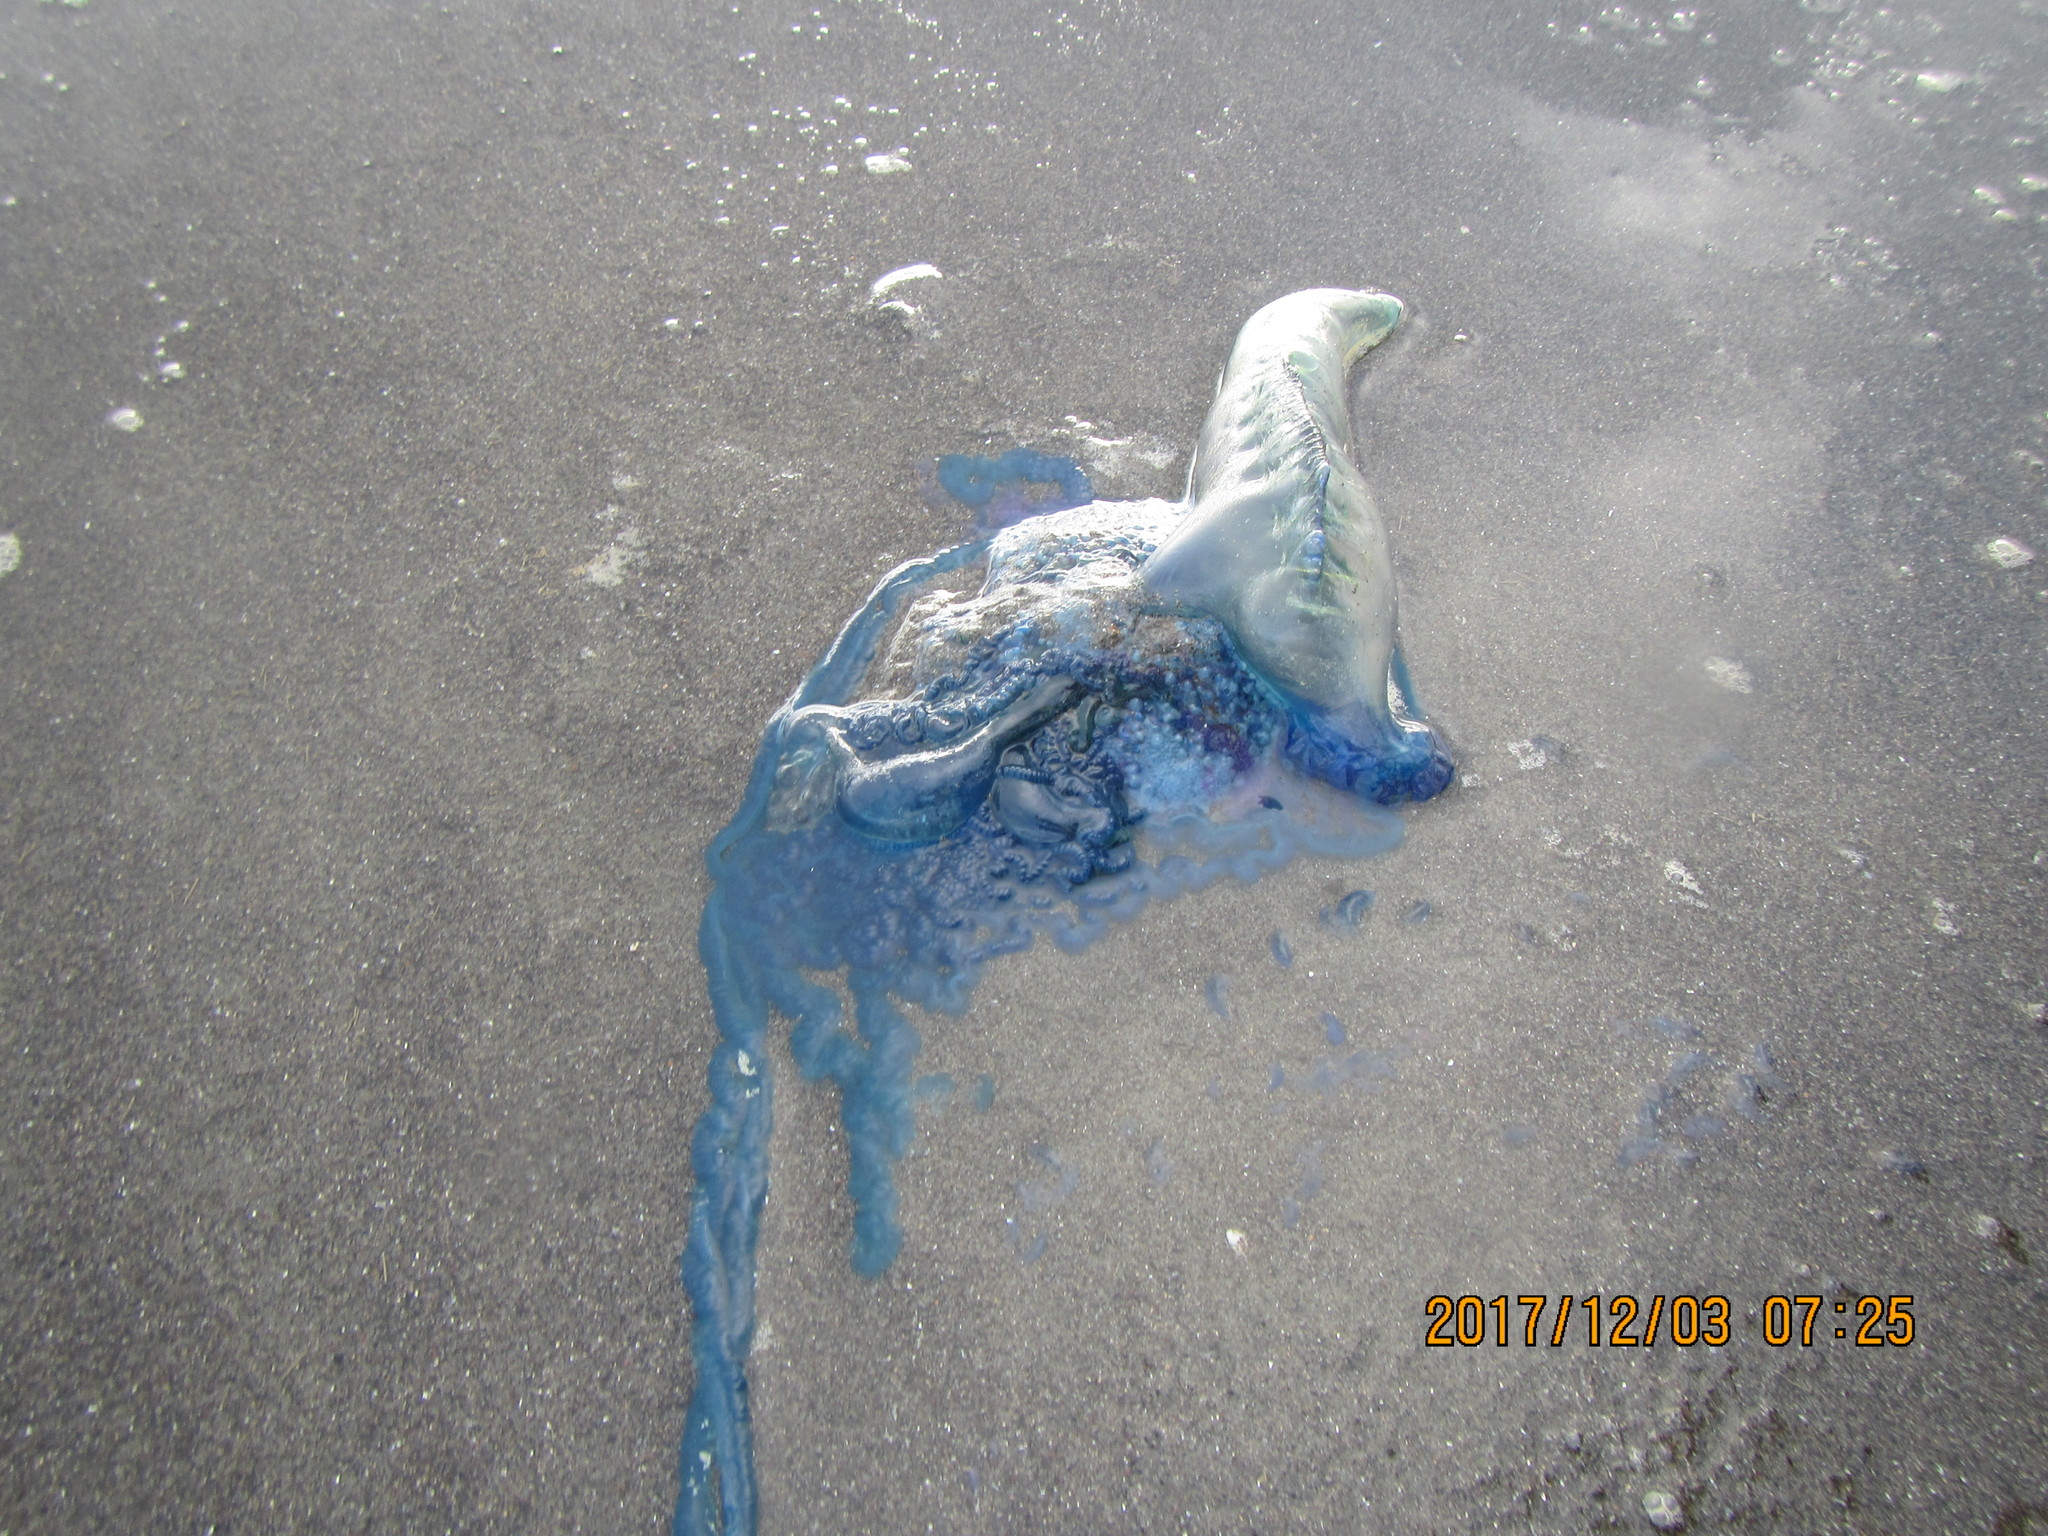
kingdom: Animalia
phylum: Cnidaria
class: Hydrozoa
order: Siphonophorae
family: Physaliidae
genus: Physalia
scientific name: Physalia physalis
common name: Portuguese man-of-war
